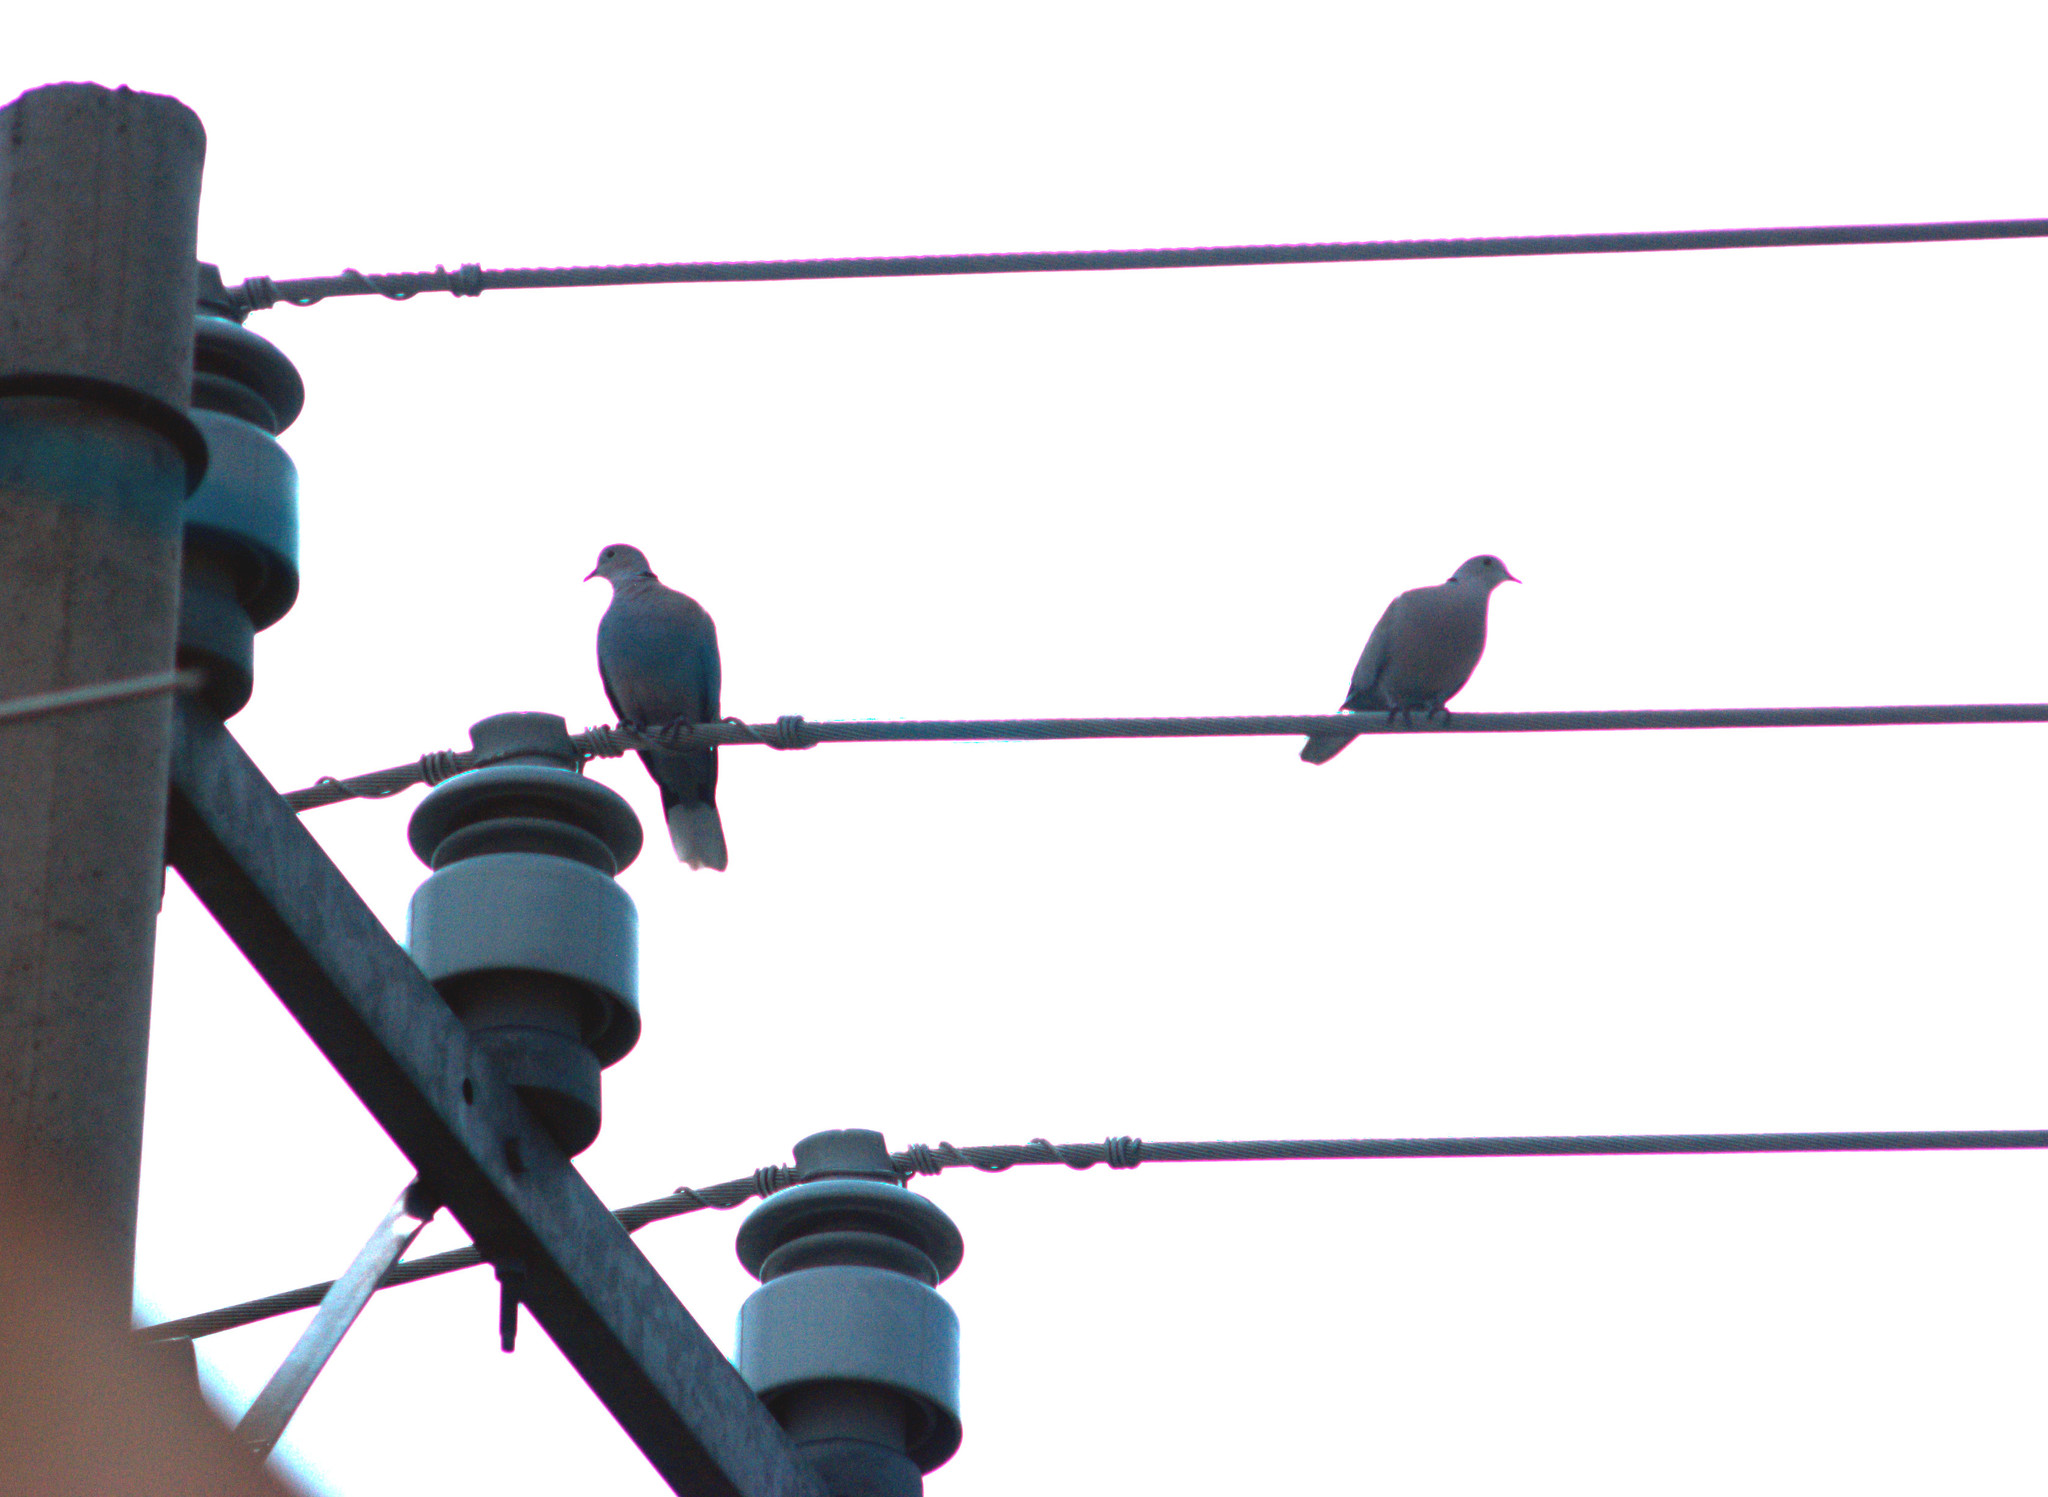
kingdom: Animalia
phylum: Chordata
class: Aves
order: Columbiformes
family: Columbidae
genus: Streptopelia
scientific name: Streptopelia decaocto
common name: Eurasian collared dove
